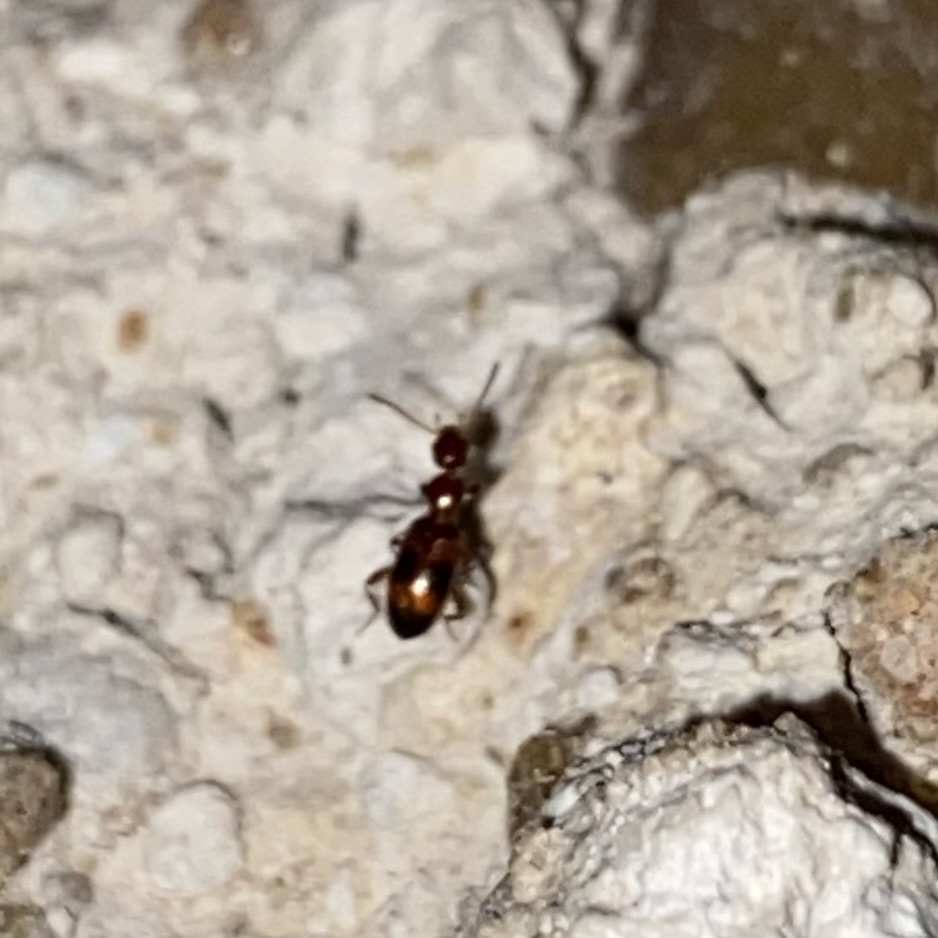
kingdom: Animalia
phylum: Arthropoda
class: Insecta
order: Coleoptera
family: Anthicidae
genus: Vacusus
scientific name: Vacusus vicinus
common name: Antlike flower beetle
